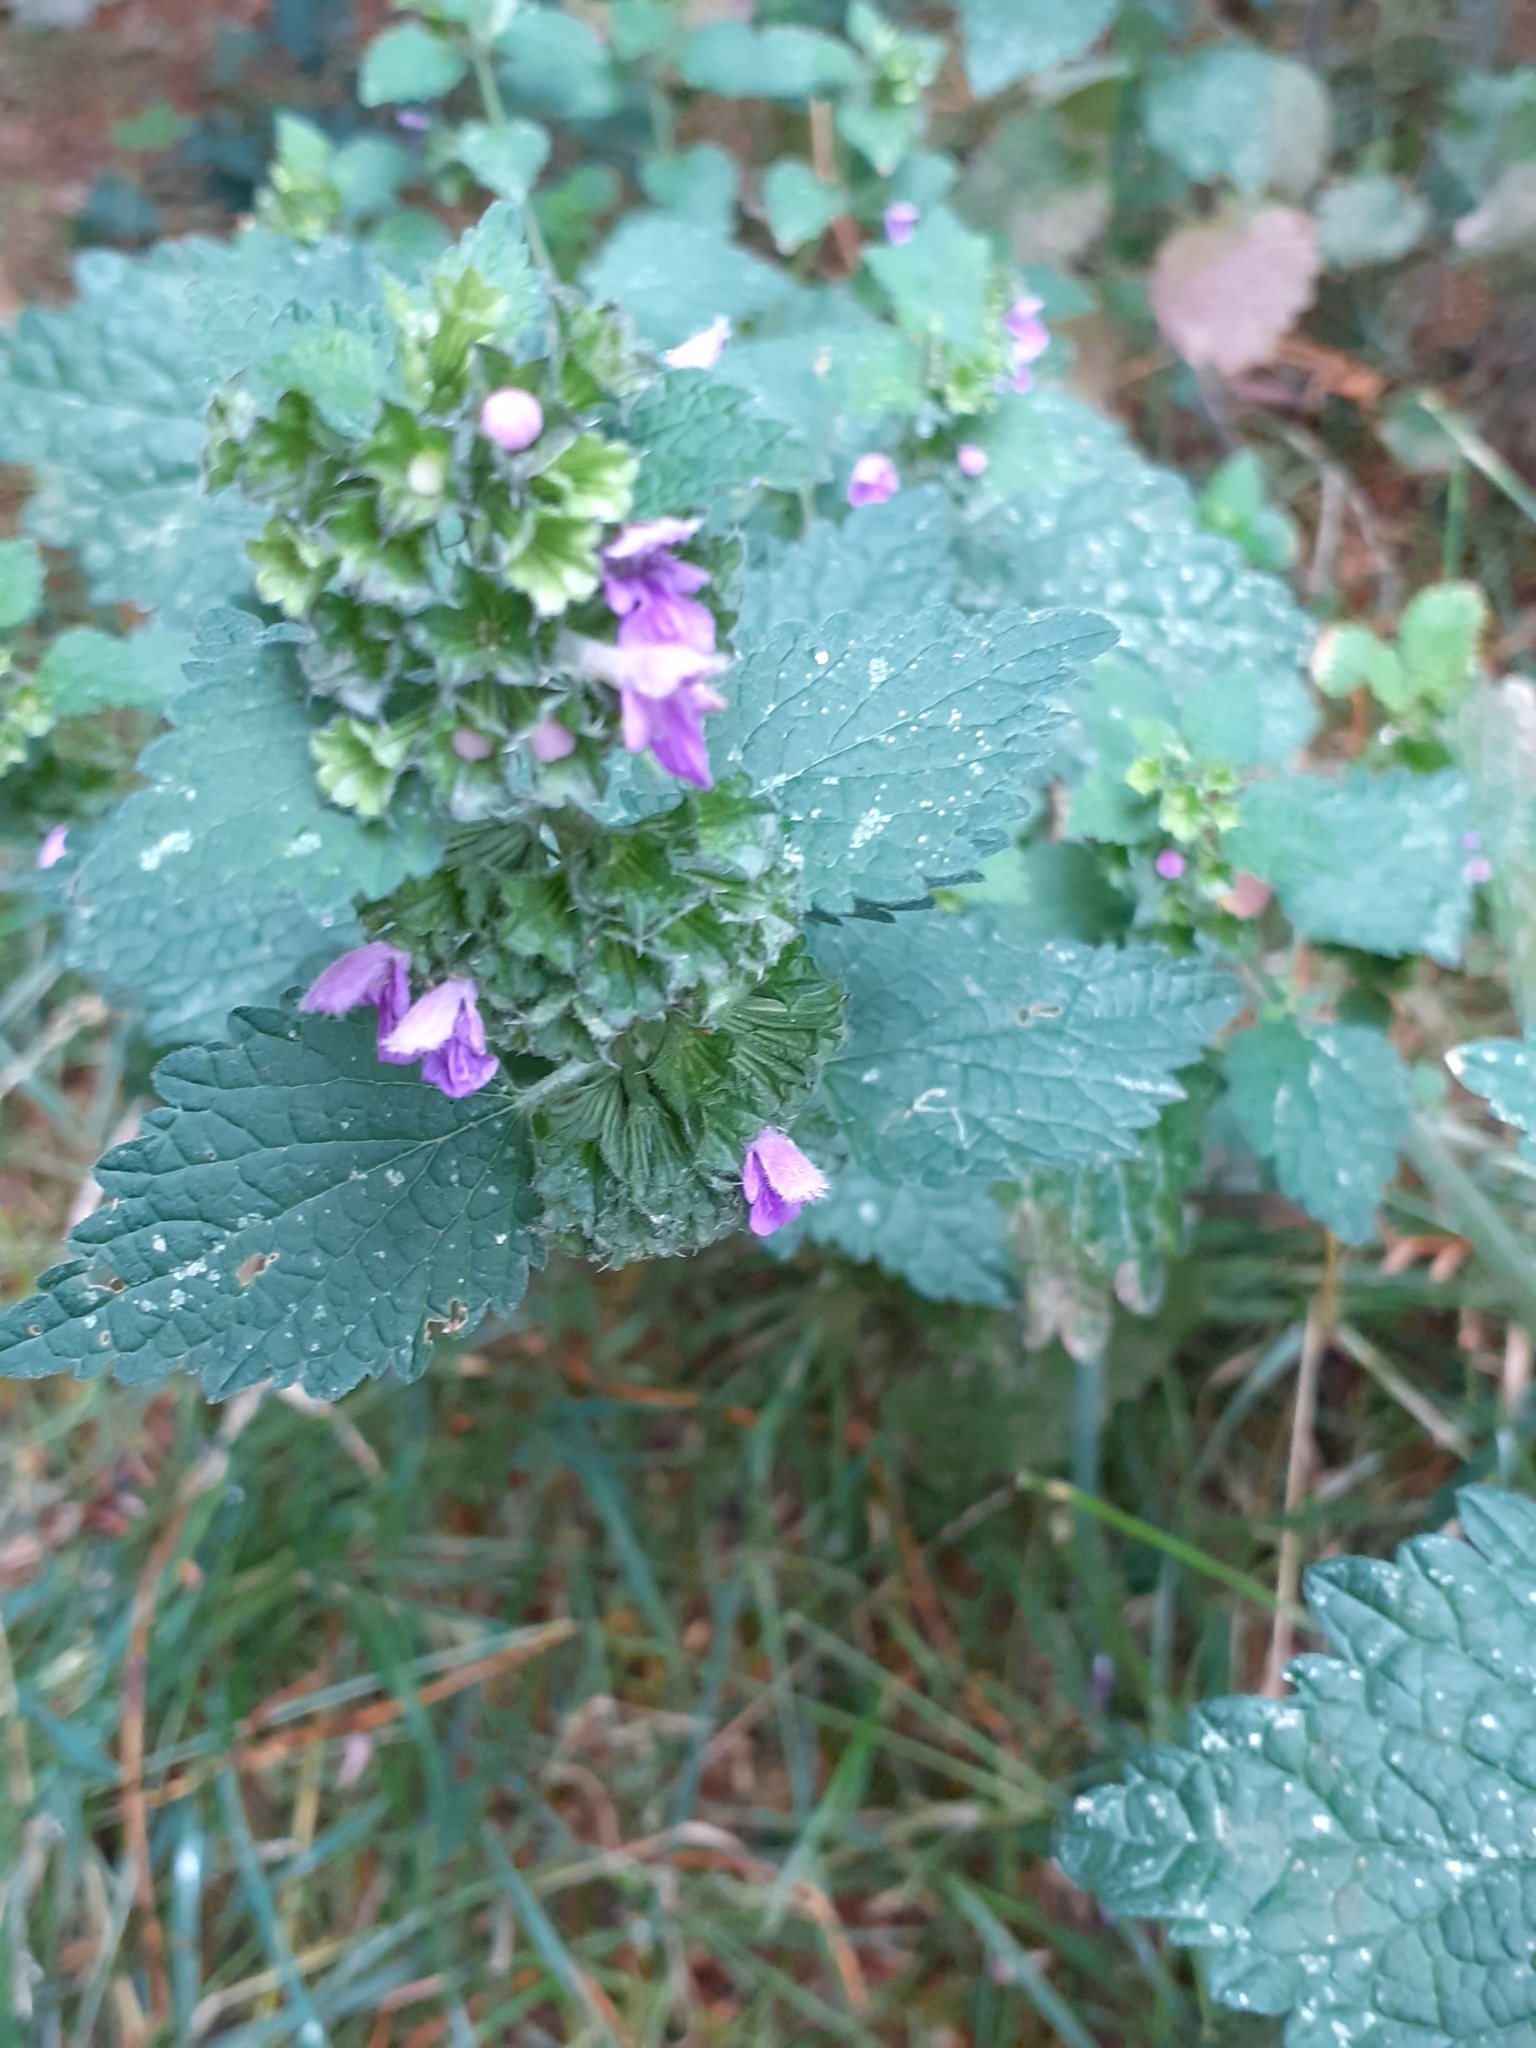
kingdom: Plantae
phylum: Tracheophyta
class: Magnoliopsida
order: Lamiales
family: Lamiaceae
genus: Ballota
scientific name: Ballota nigra
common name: Black horehound
